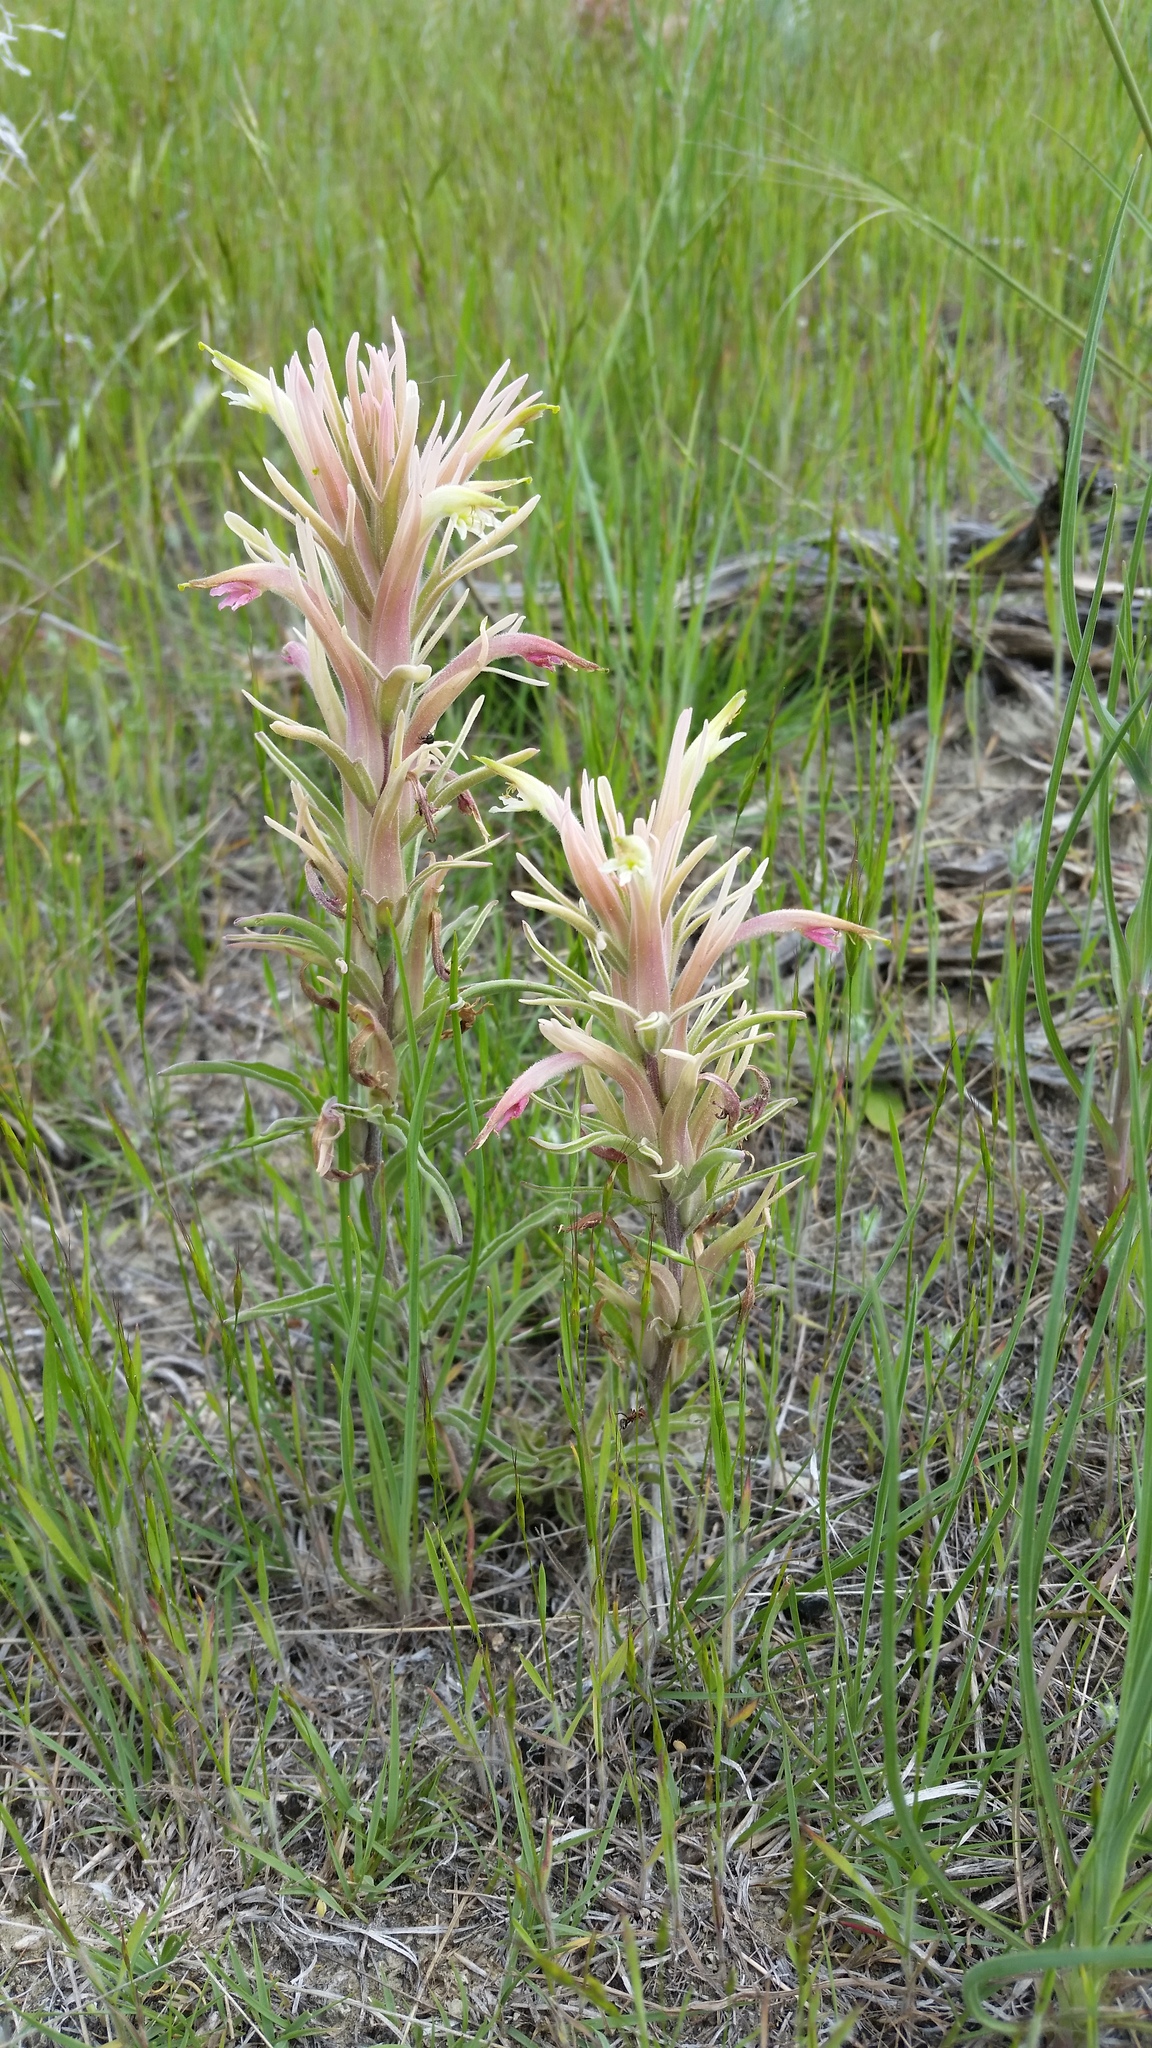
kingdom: Plantae
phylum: Tracheophyta
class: Magnoliopsida
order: Lamiales
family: Orobanchaceae
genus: Castilleja
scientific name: Castilleja sessiliflora
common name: Downy paintbrush
